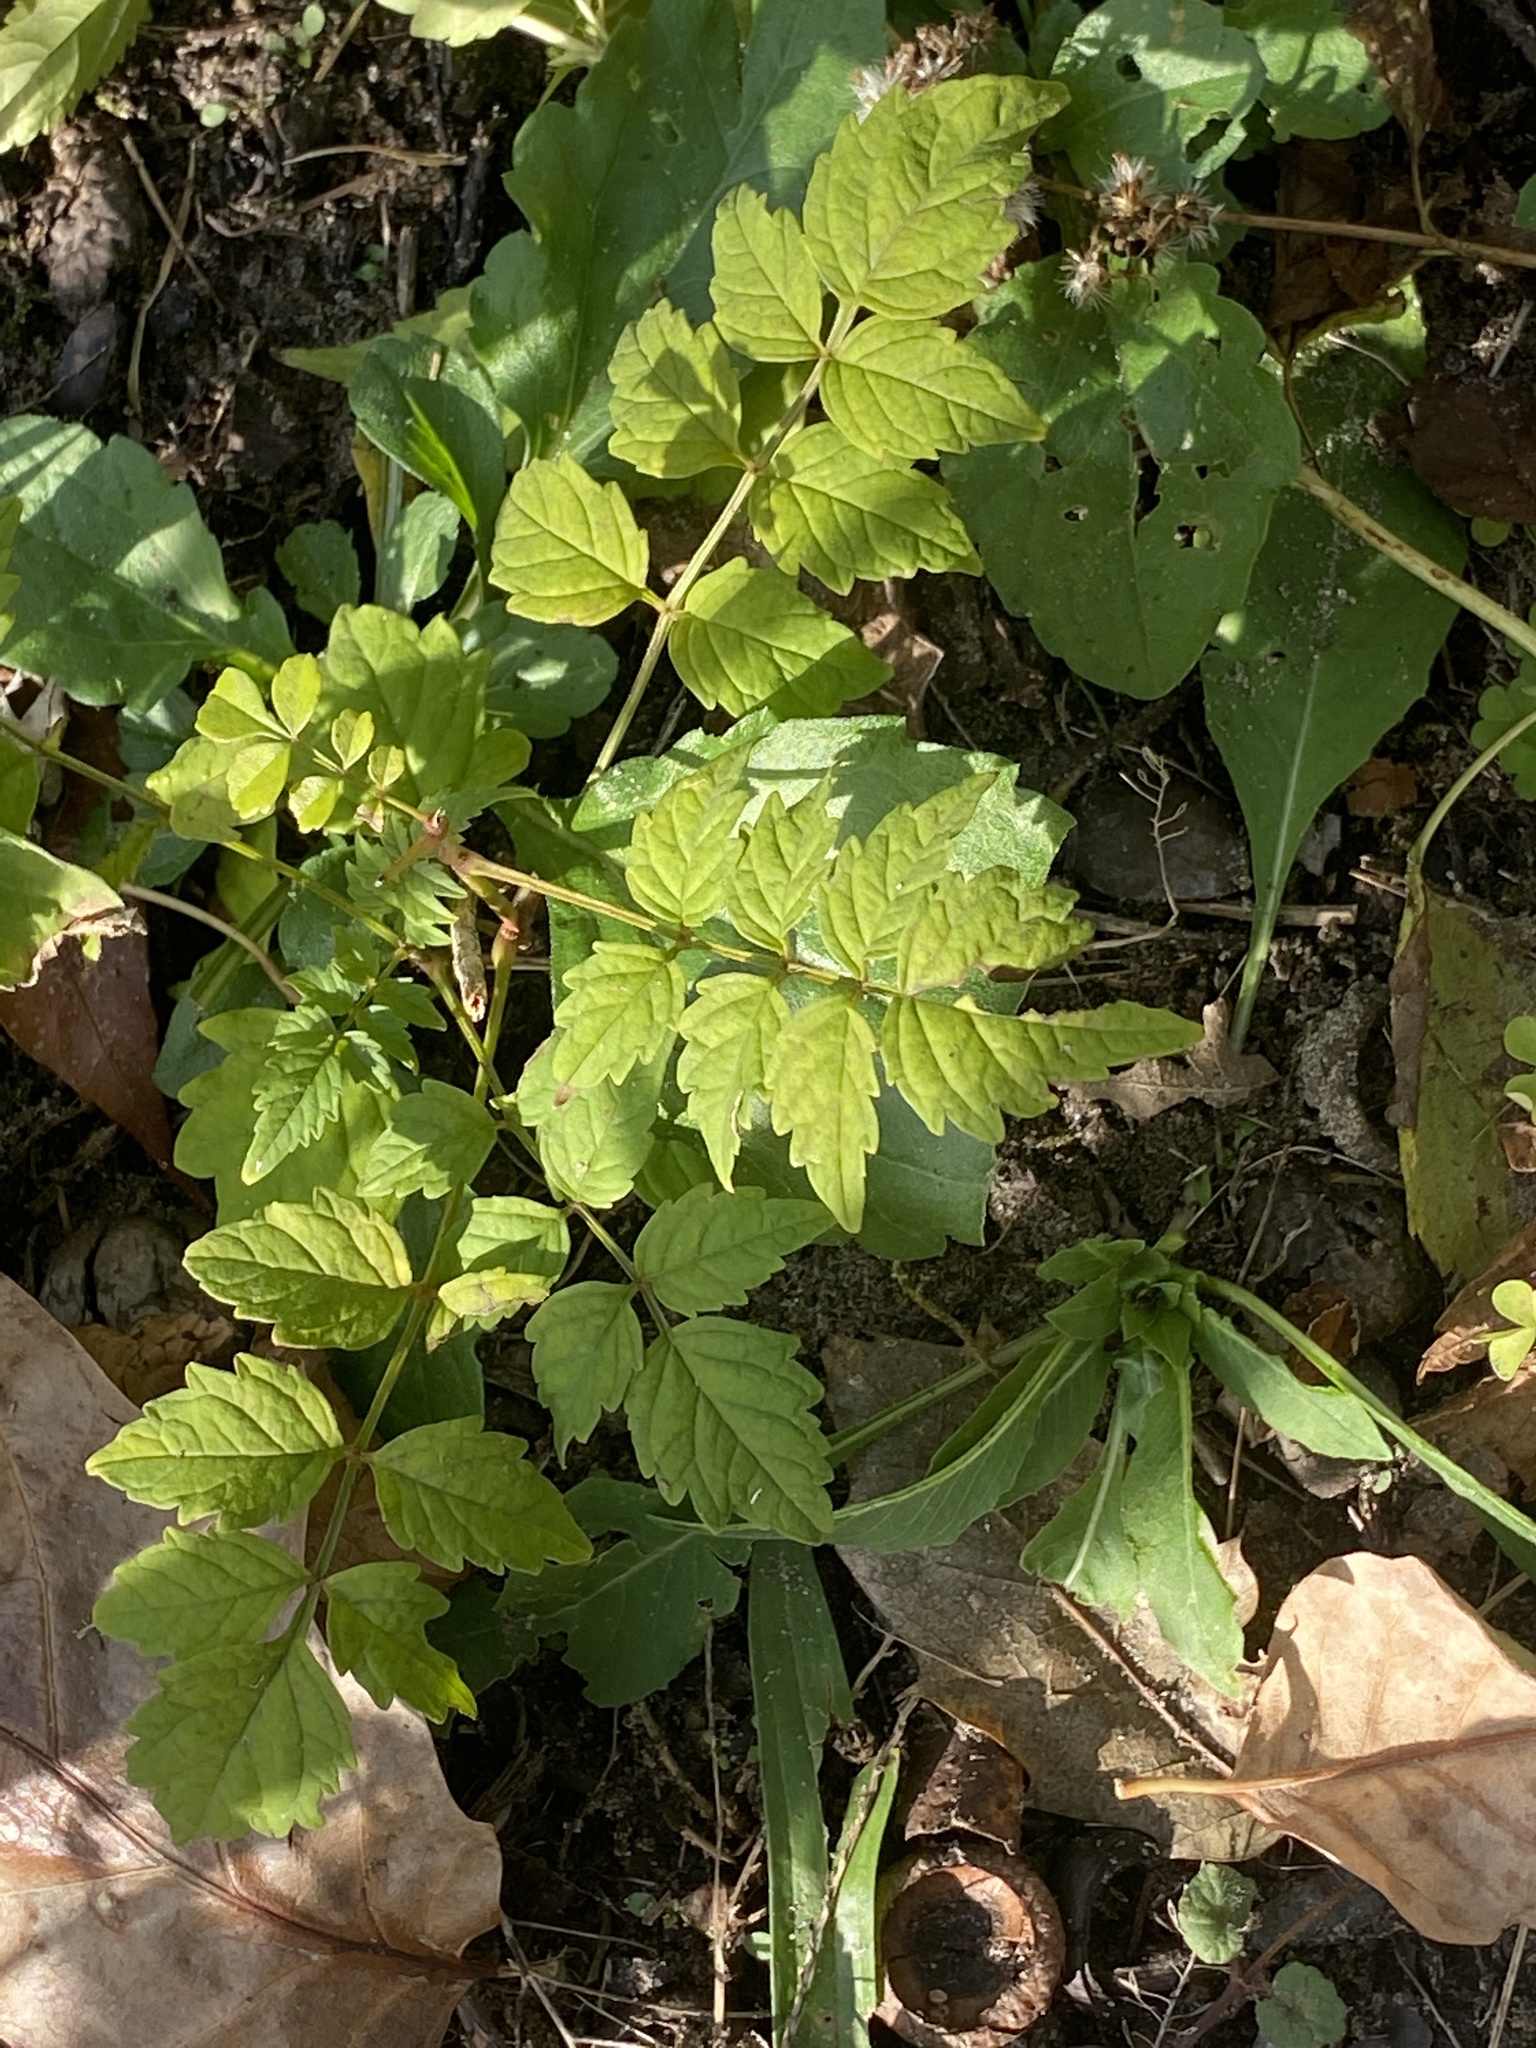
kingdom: Plantae
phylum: Tracheophyta
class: Magnoliopsida
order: Lamiales
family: Bignoniaceae
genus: Campsis
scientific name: Campsis radicans
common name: Trumpet-creeper
